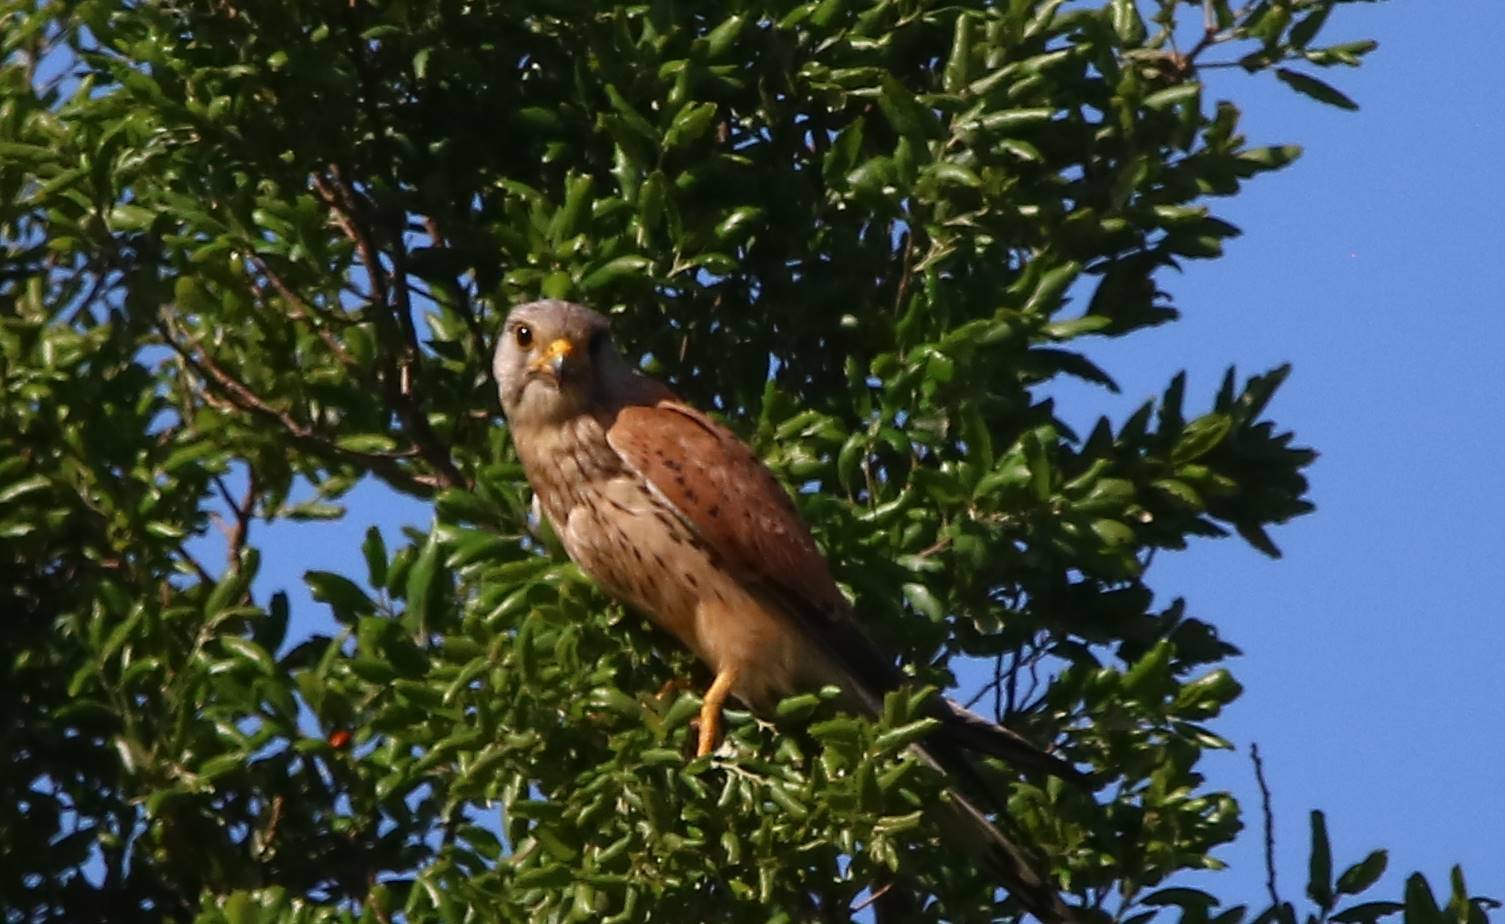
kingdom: Animalia
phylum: Chordata
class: Aves
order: Falconiformes
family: Falconidae
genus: Falco
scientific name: Falco tinnunculus
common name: Common kestrel
